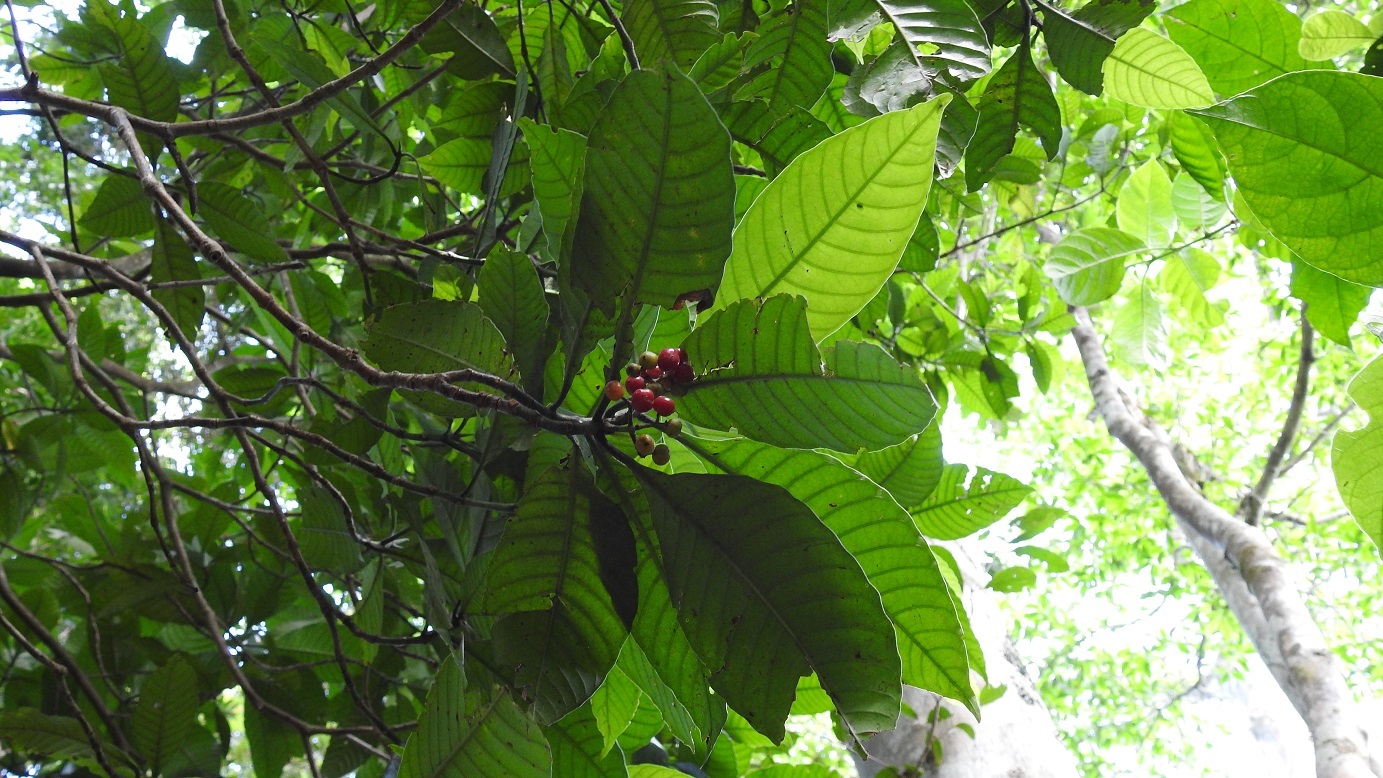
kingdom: Plantae
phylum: Tracheophyta
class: Magnoliopsida
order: Gentianales
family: Rubiaceae
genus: Psychotria
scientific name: Psychotria mexiae
